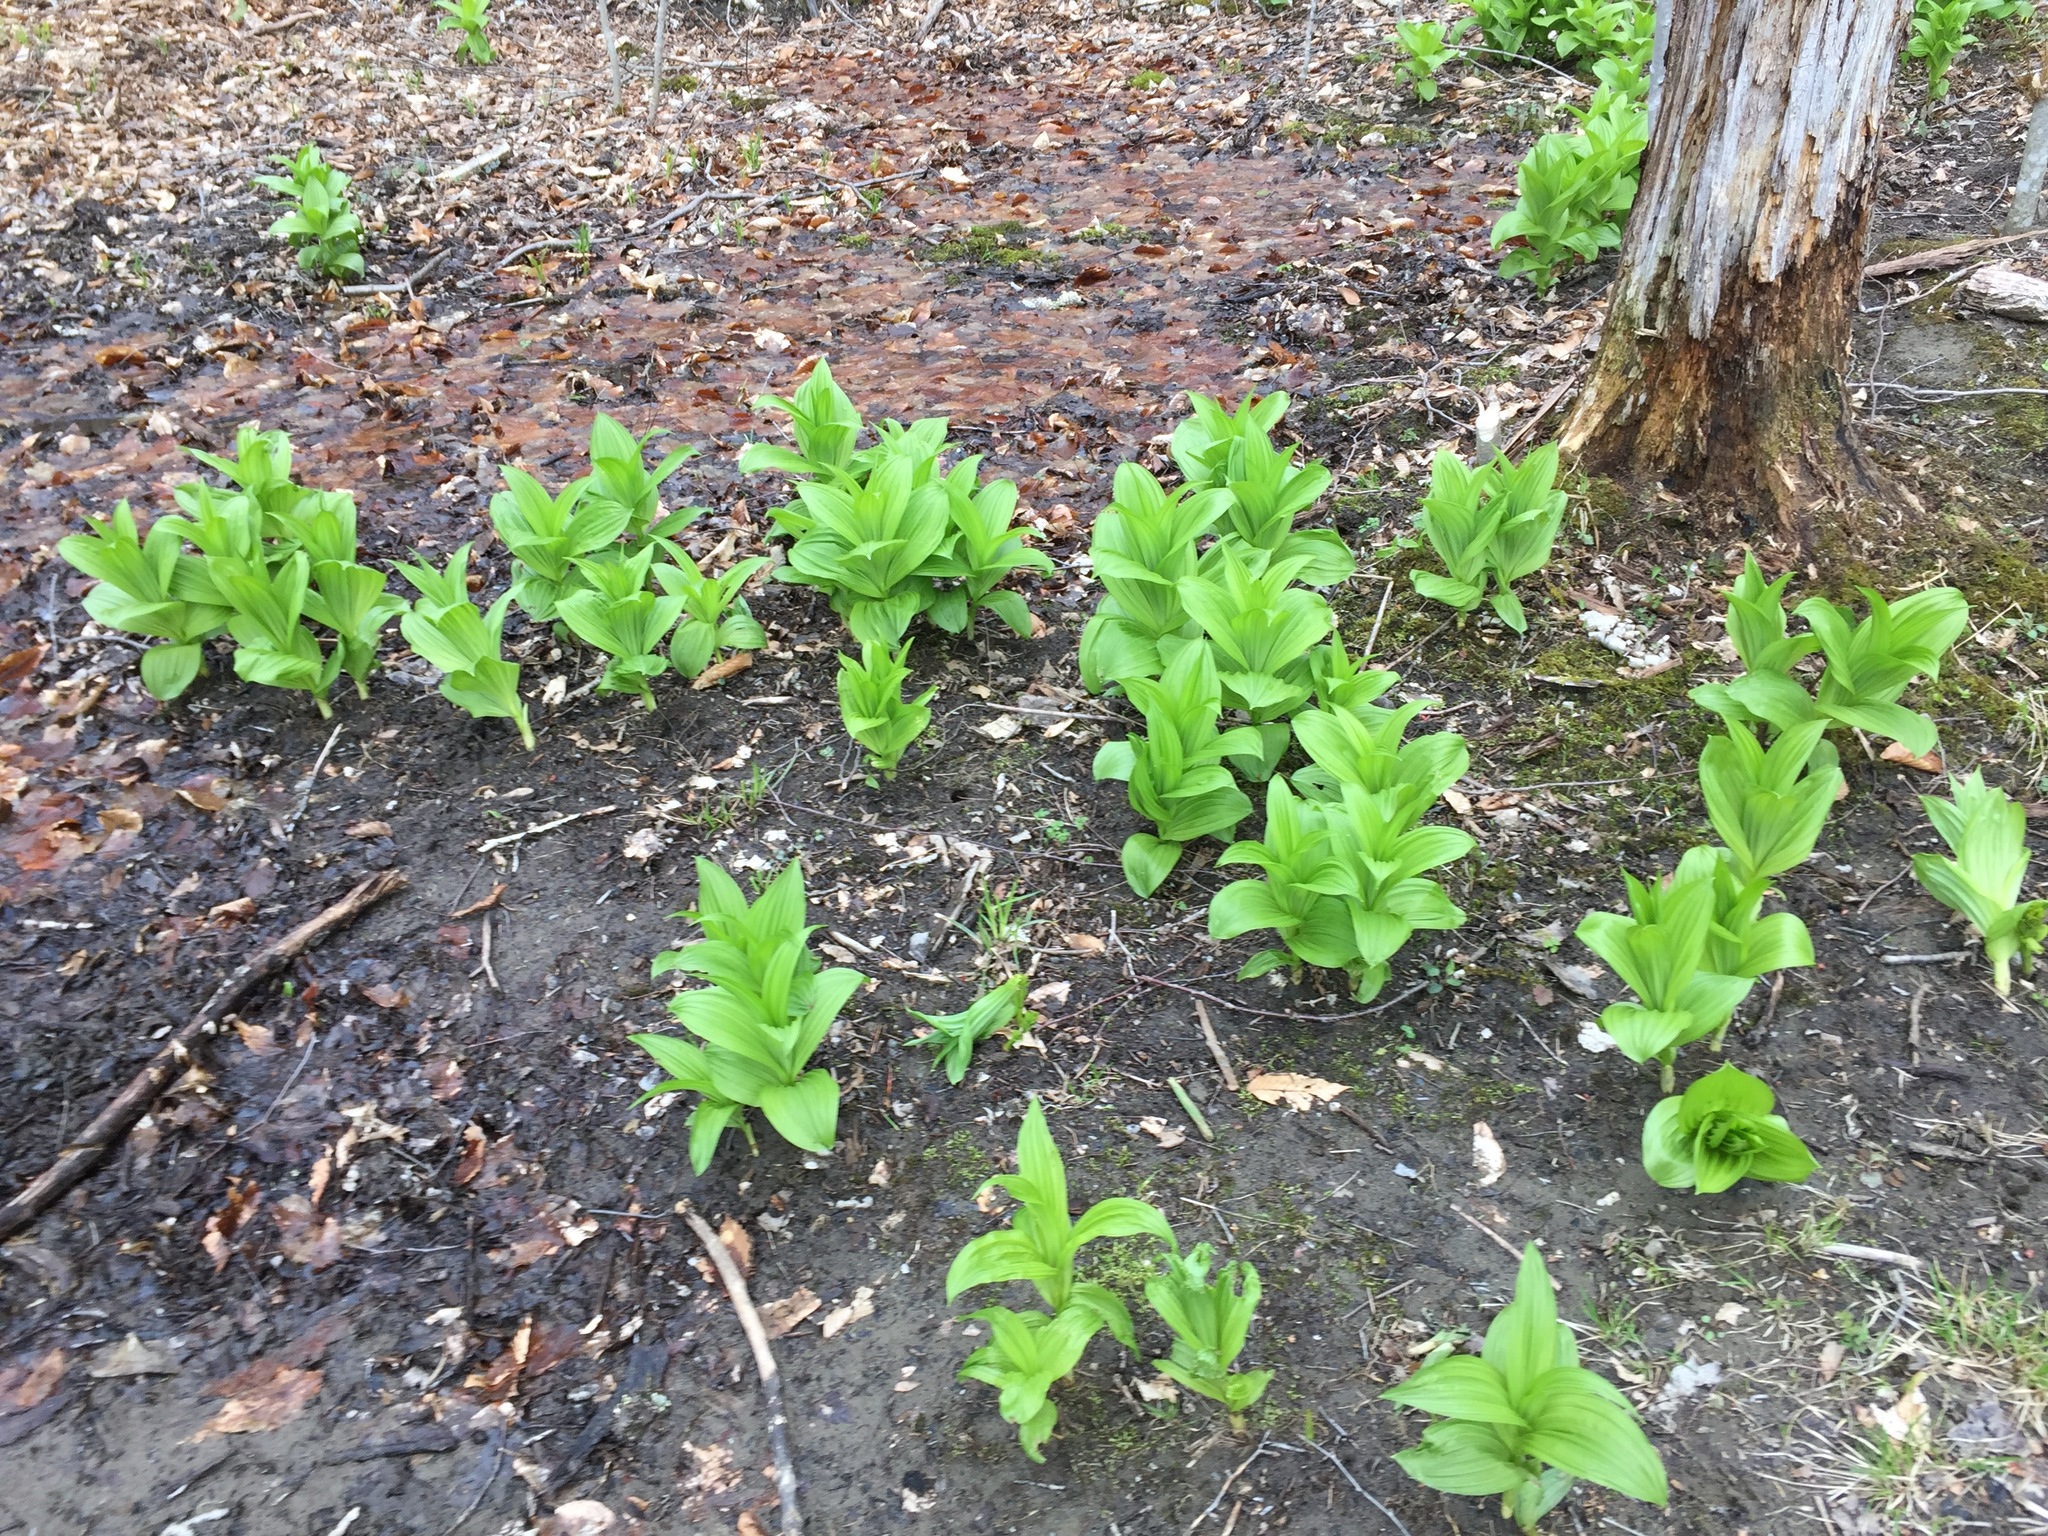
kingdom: Plantae
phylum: Tracheophyta
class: Liliopsida
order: Liliales
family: Melanthiaceae
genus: Veratrum
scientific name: Veratrum viride
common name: American false hellebore
